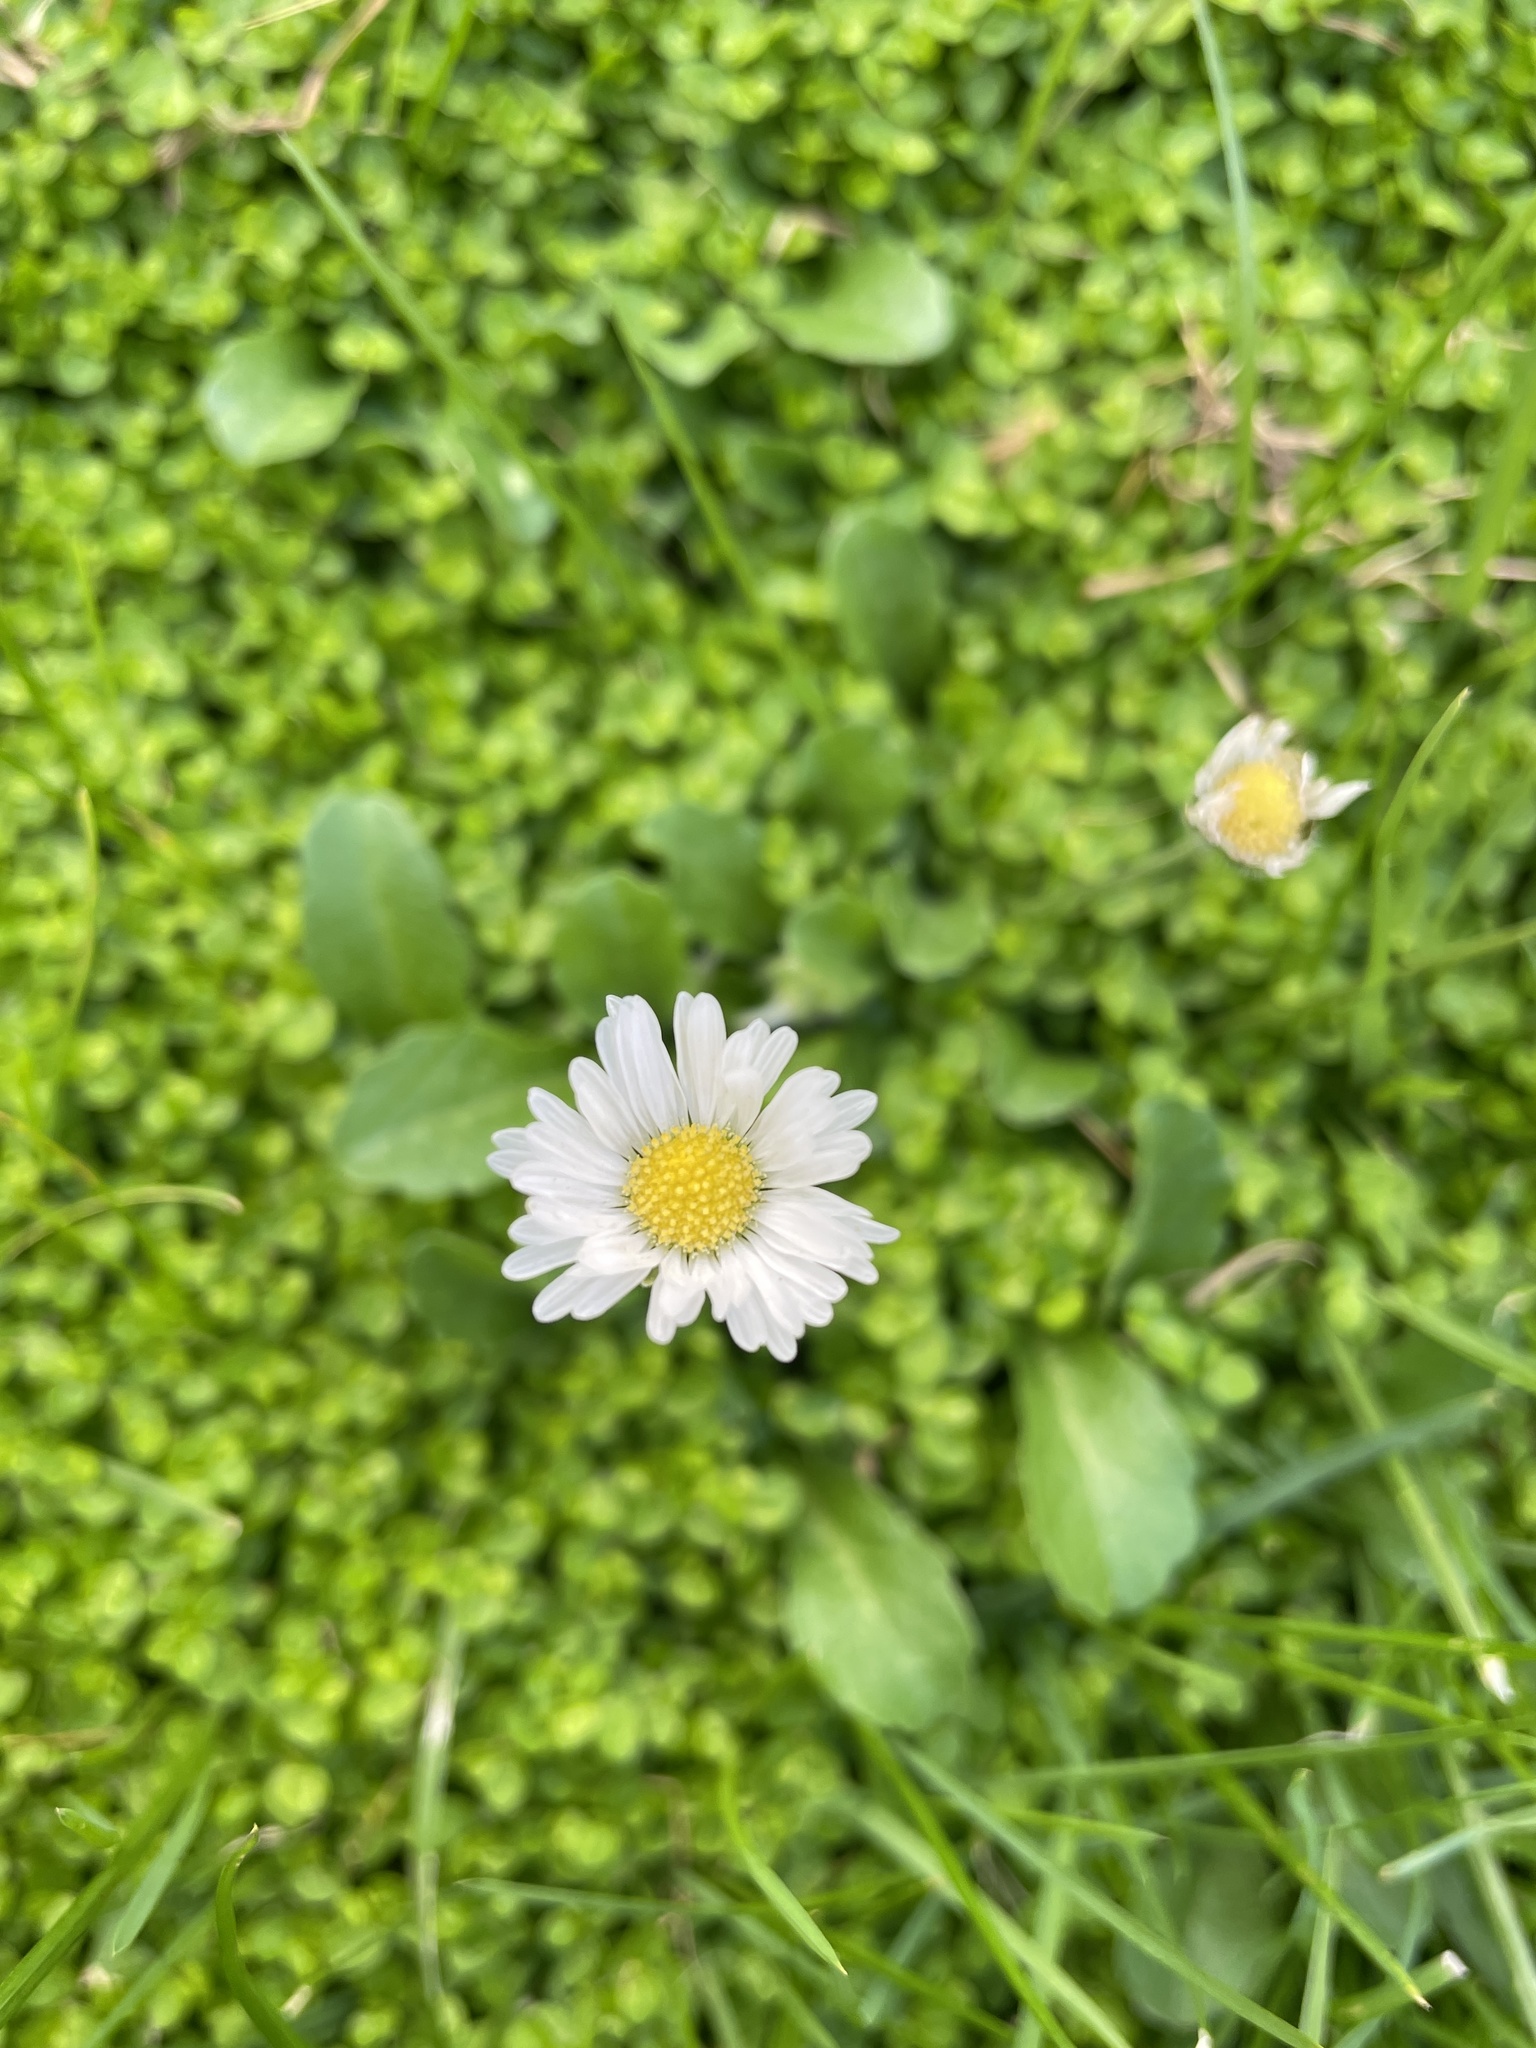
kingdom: Plantae
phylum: Tracheophyta
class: Magnoliopsida
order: Asterales
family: Asteraceae
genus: Bellis
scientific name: Bellis perennis
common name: Lawndaisy
